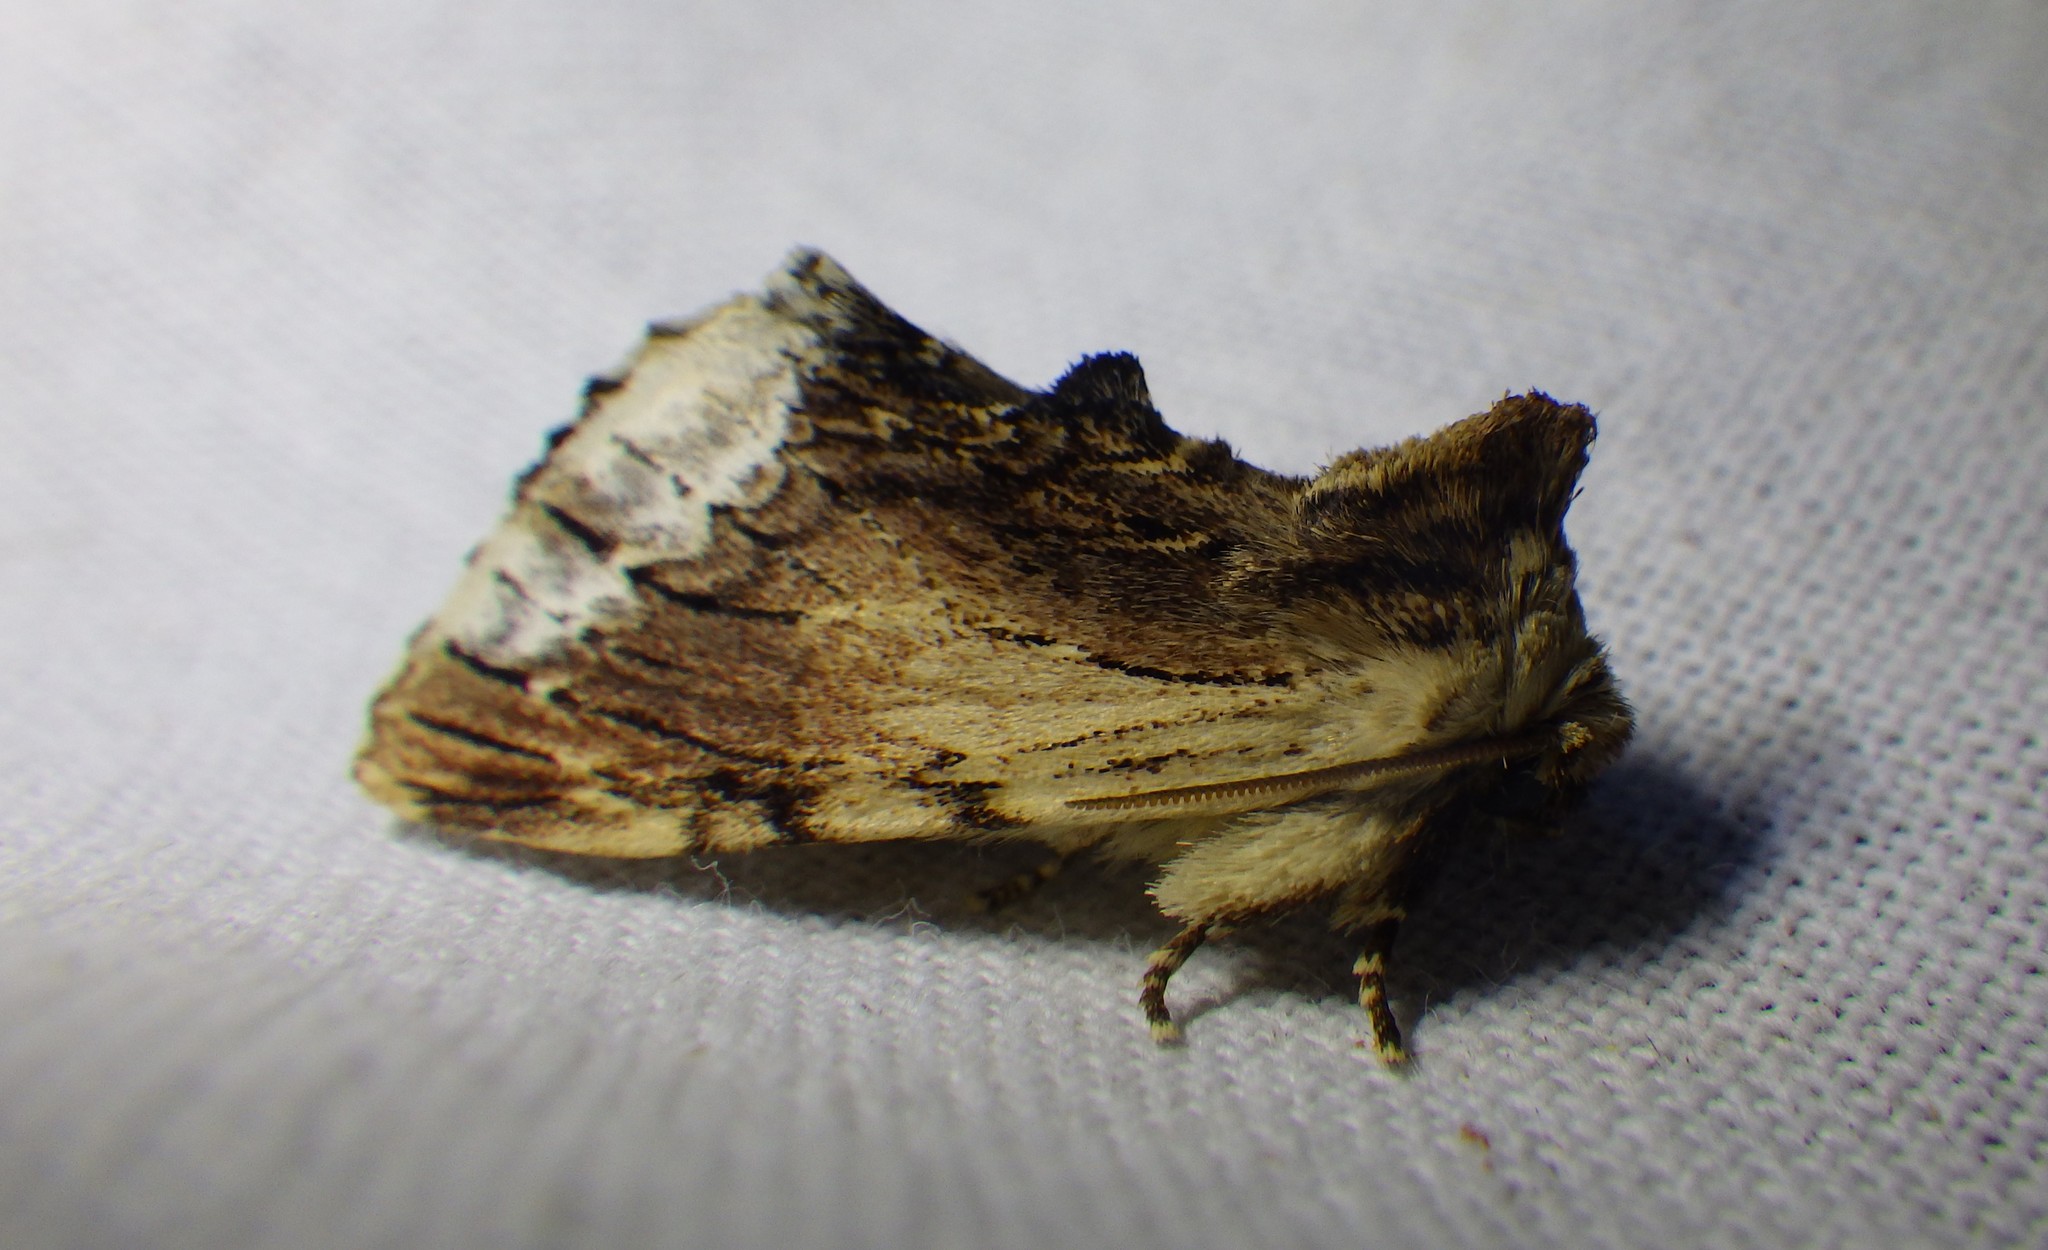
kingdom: Animalia
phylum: Arthropoda
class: Insecta
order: Lepidoptera
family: Notodontidae
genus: Ptilodon
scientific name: Ptilodon cucullina
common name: Maple prominent
